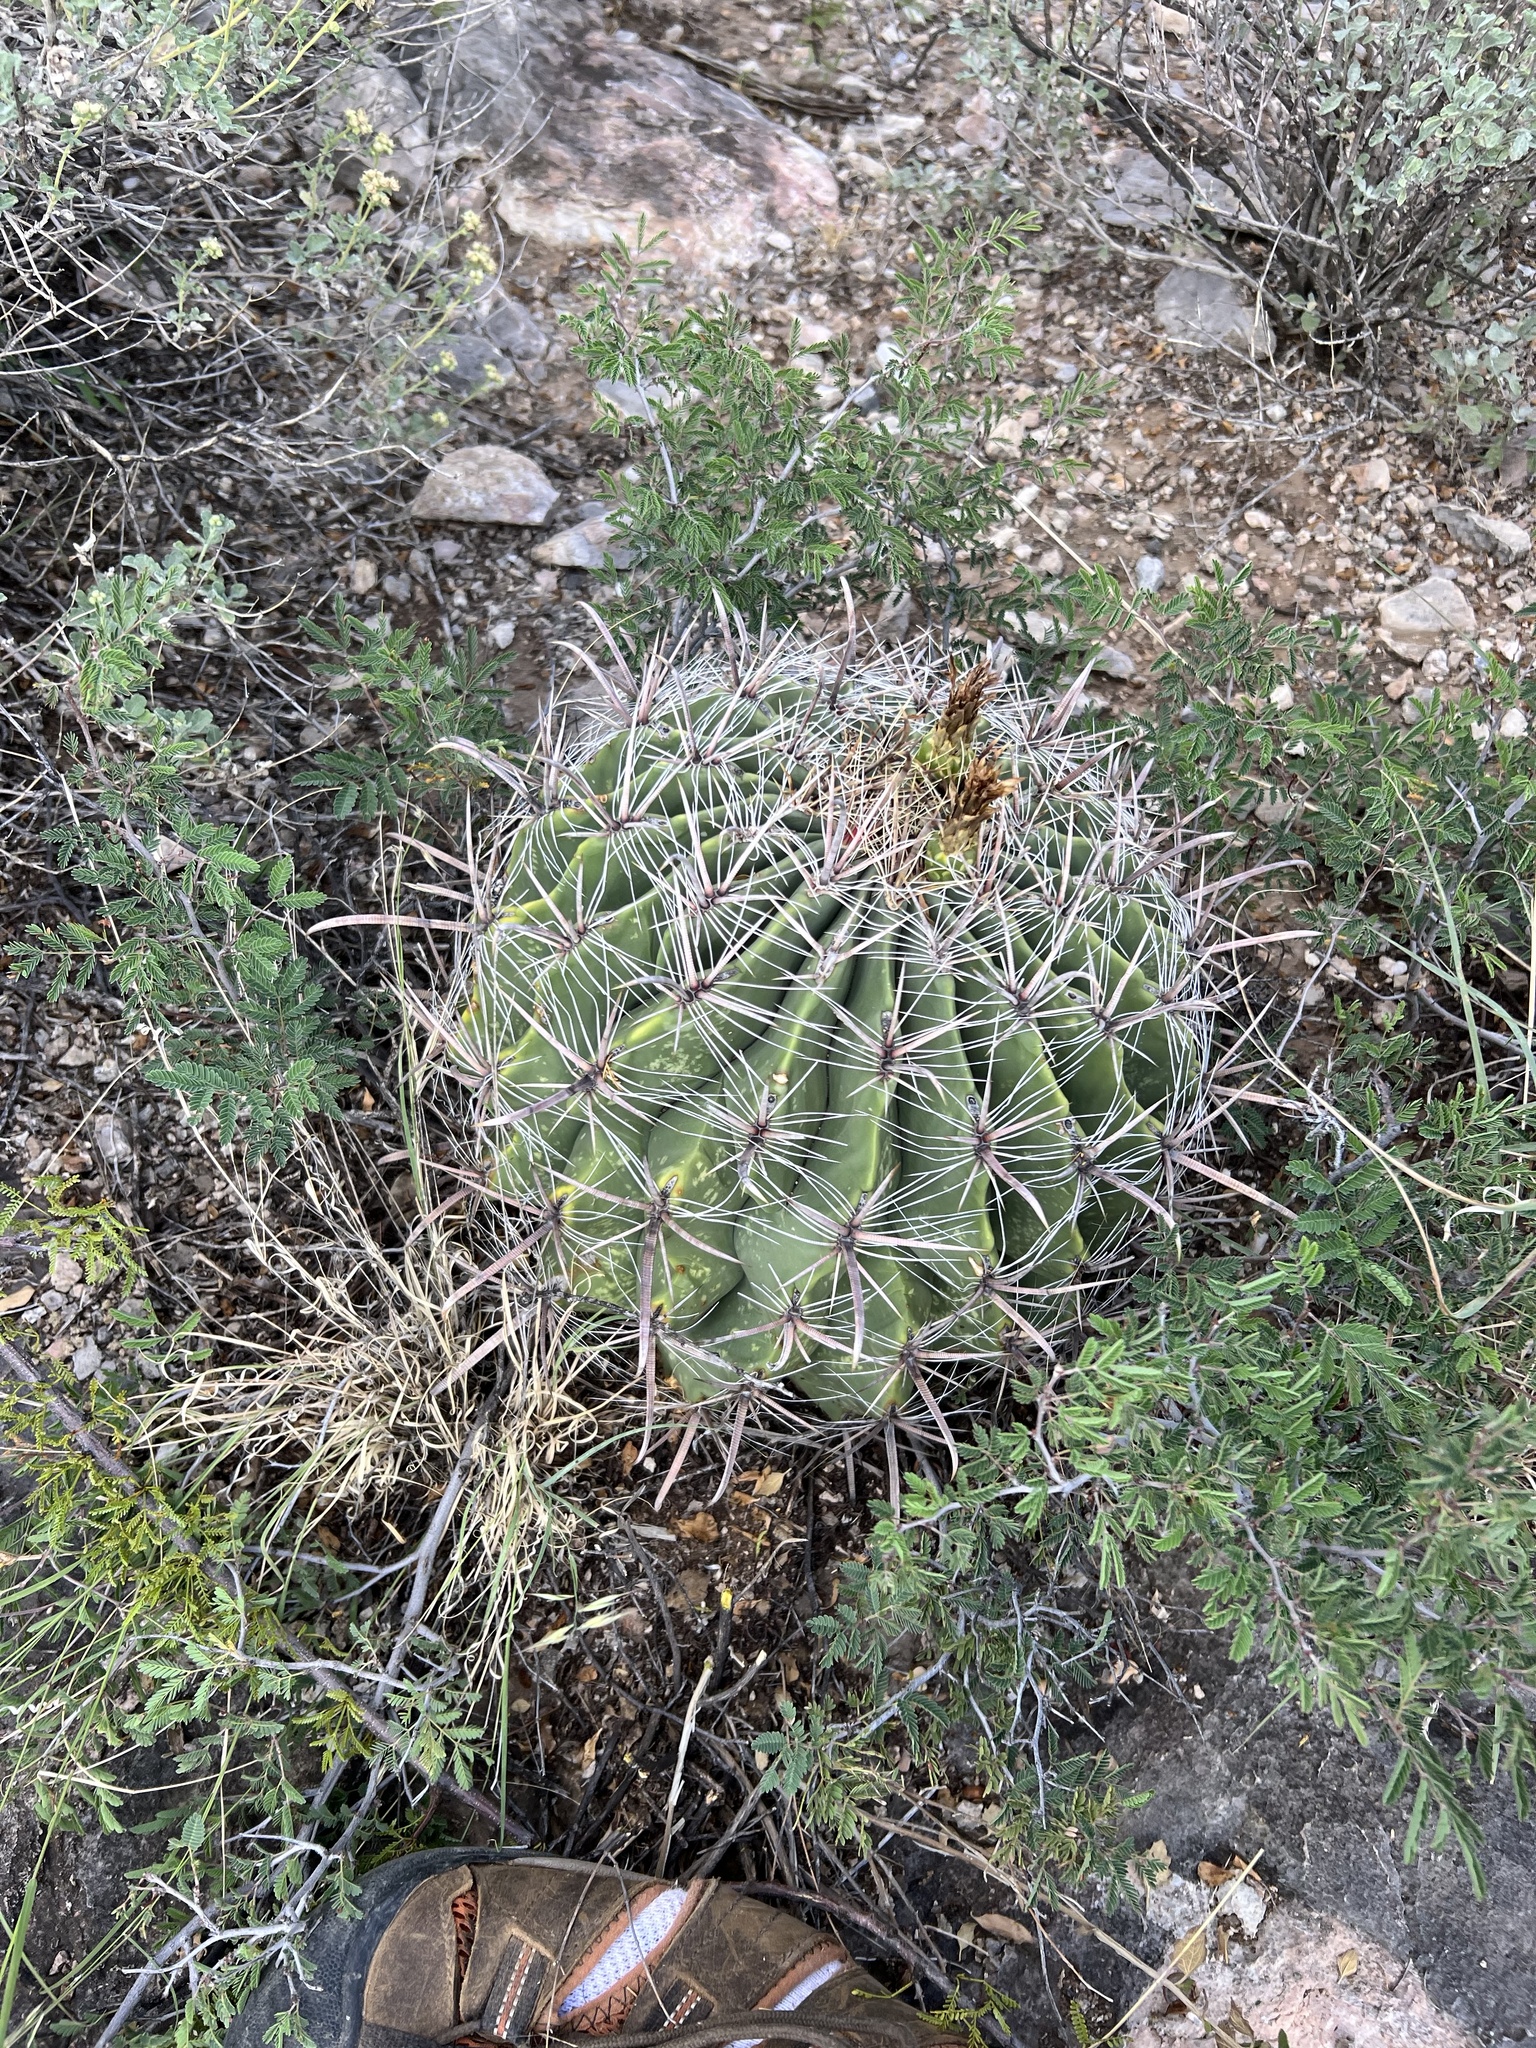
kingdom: Plantae
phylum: Tracheophyta
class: Magnoliopsida
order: Caryophyllales
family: Cactaceae
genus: Ferocactus
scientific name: Ferocactus wislizeni
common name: Candy barrel cactus
